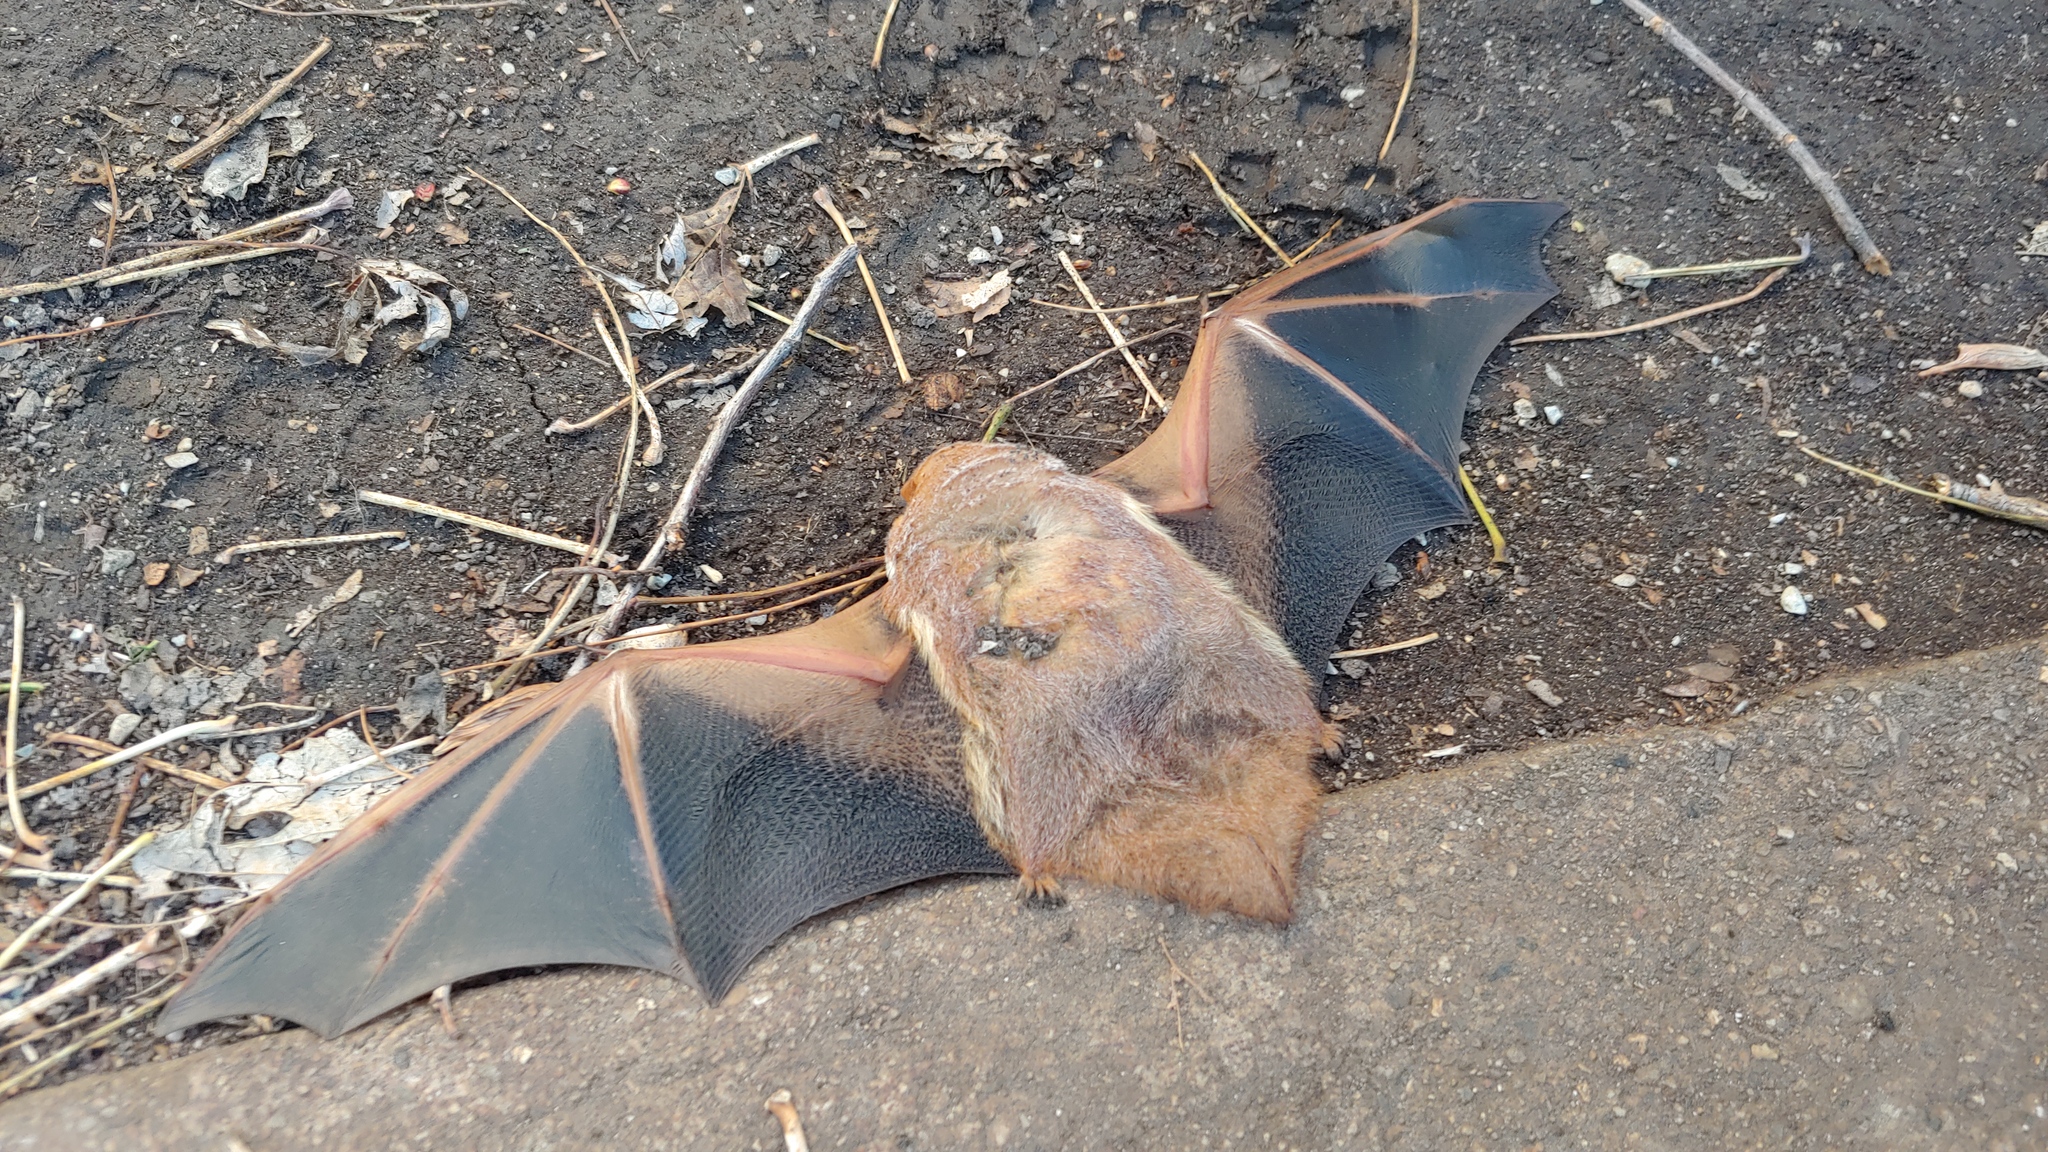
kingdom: Animalia
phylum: Chordata
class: Mammalia
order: Chiroptera
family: Vespertilionidae
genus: Lasiurus
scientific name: Lasiurus borealis
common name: Eastern red bat
